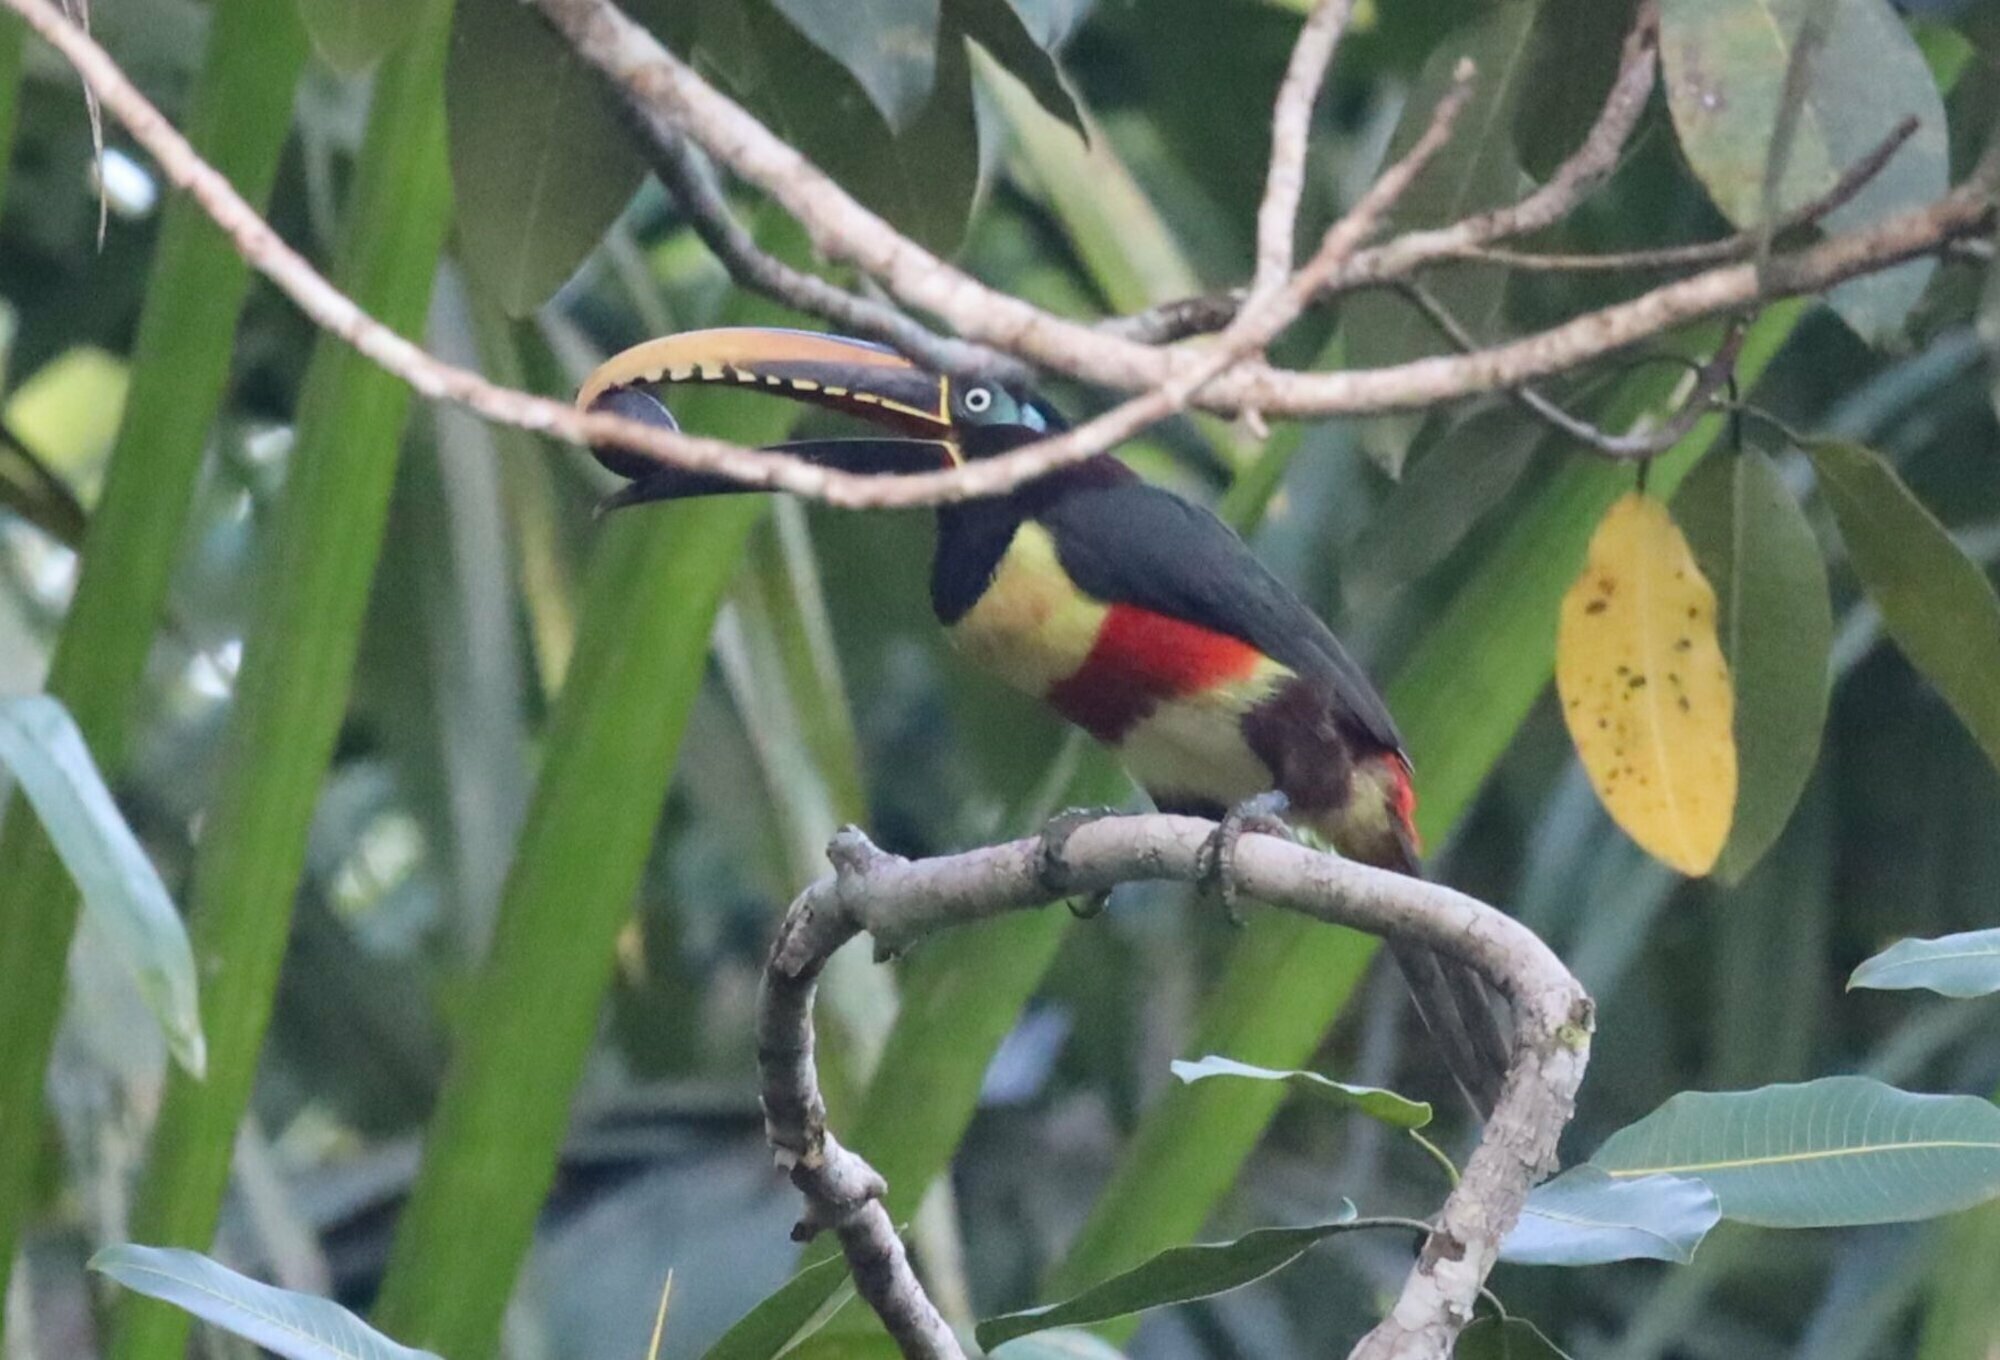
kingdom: Animalia
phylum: Chordata
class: Aves
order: Piciformes
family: Ramphastidae
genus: Pteroglossus
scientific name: Pteroglossus castanotis
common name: Chestnut-eared aracari
